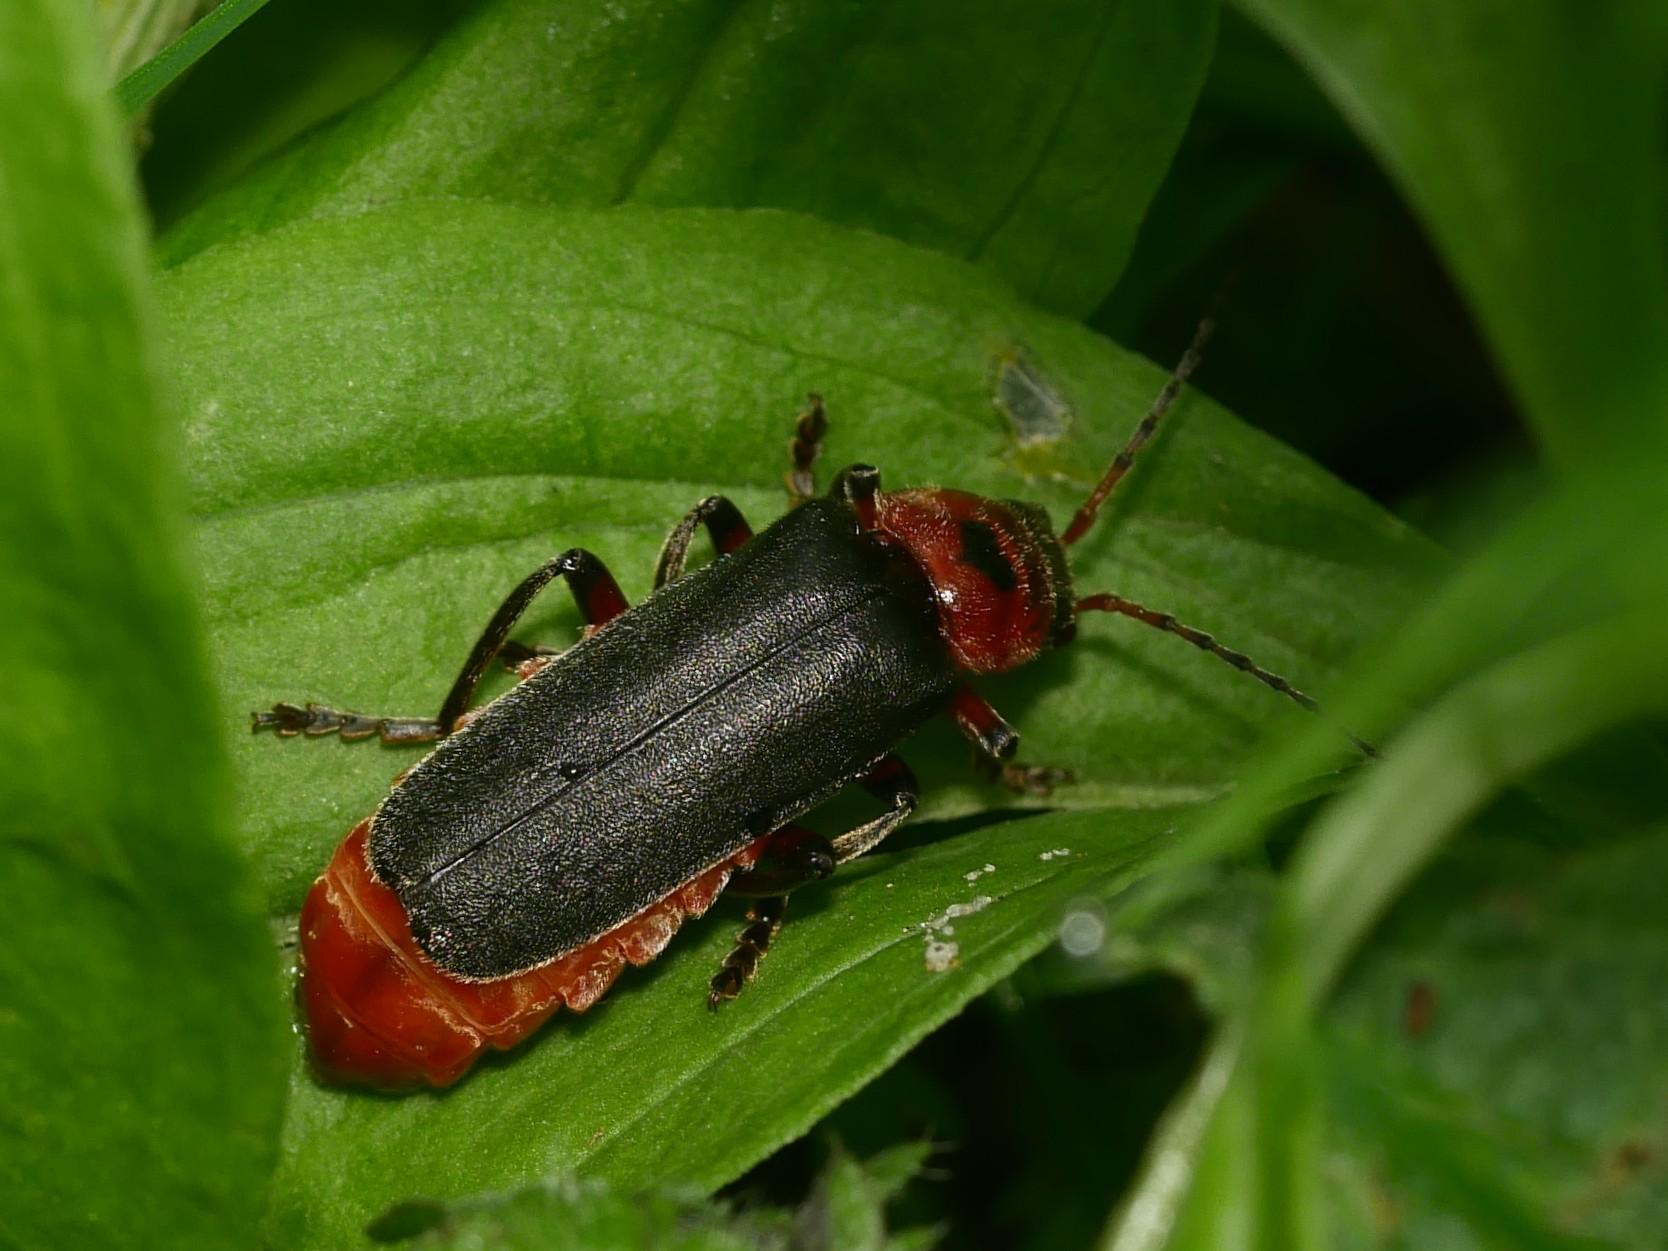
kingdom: Animalia
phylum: Arthropoda
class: Insecta
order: Coleoptera
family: Cantharidae
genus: Cantharis
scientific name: Cantharis rustica
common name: Soldier beetle
